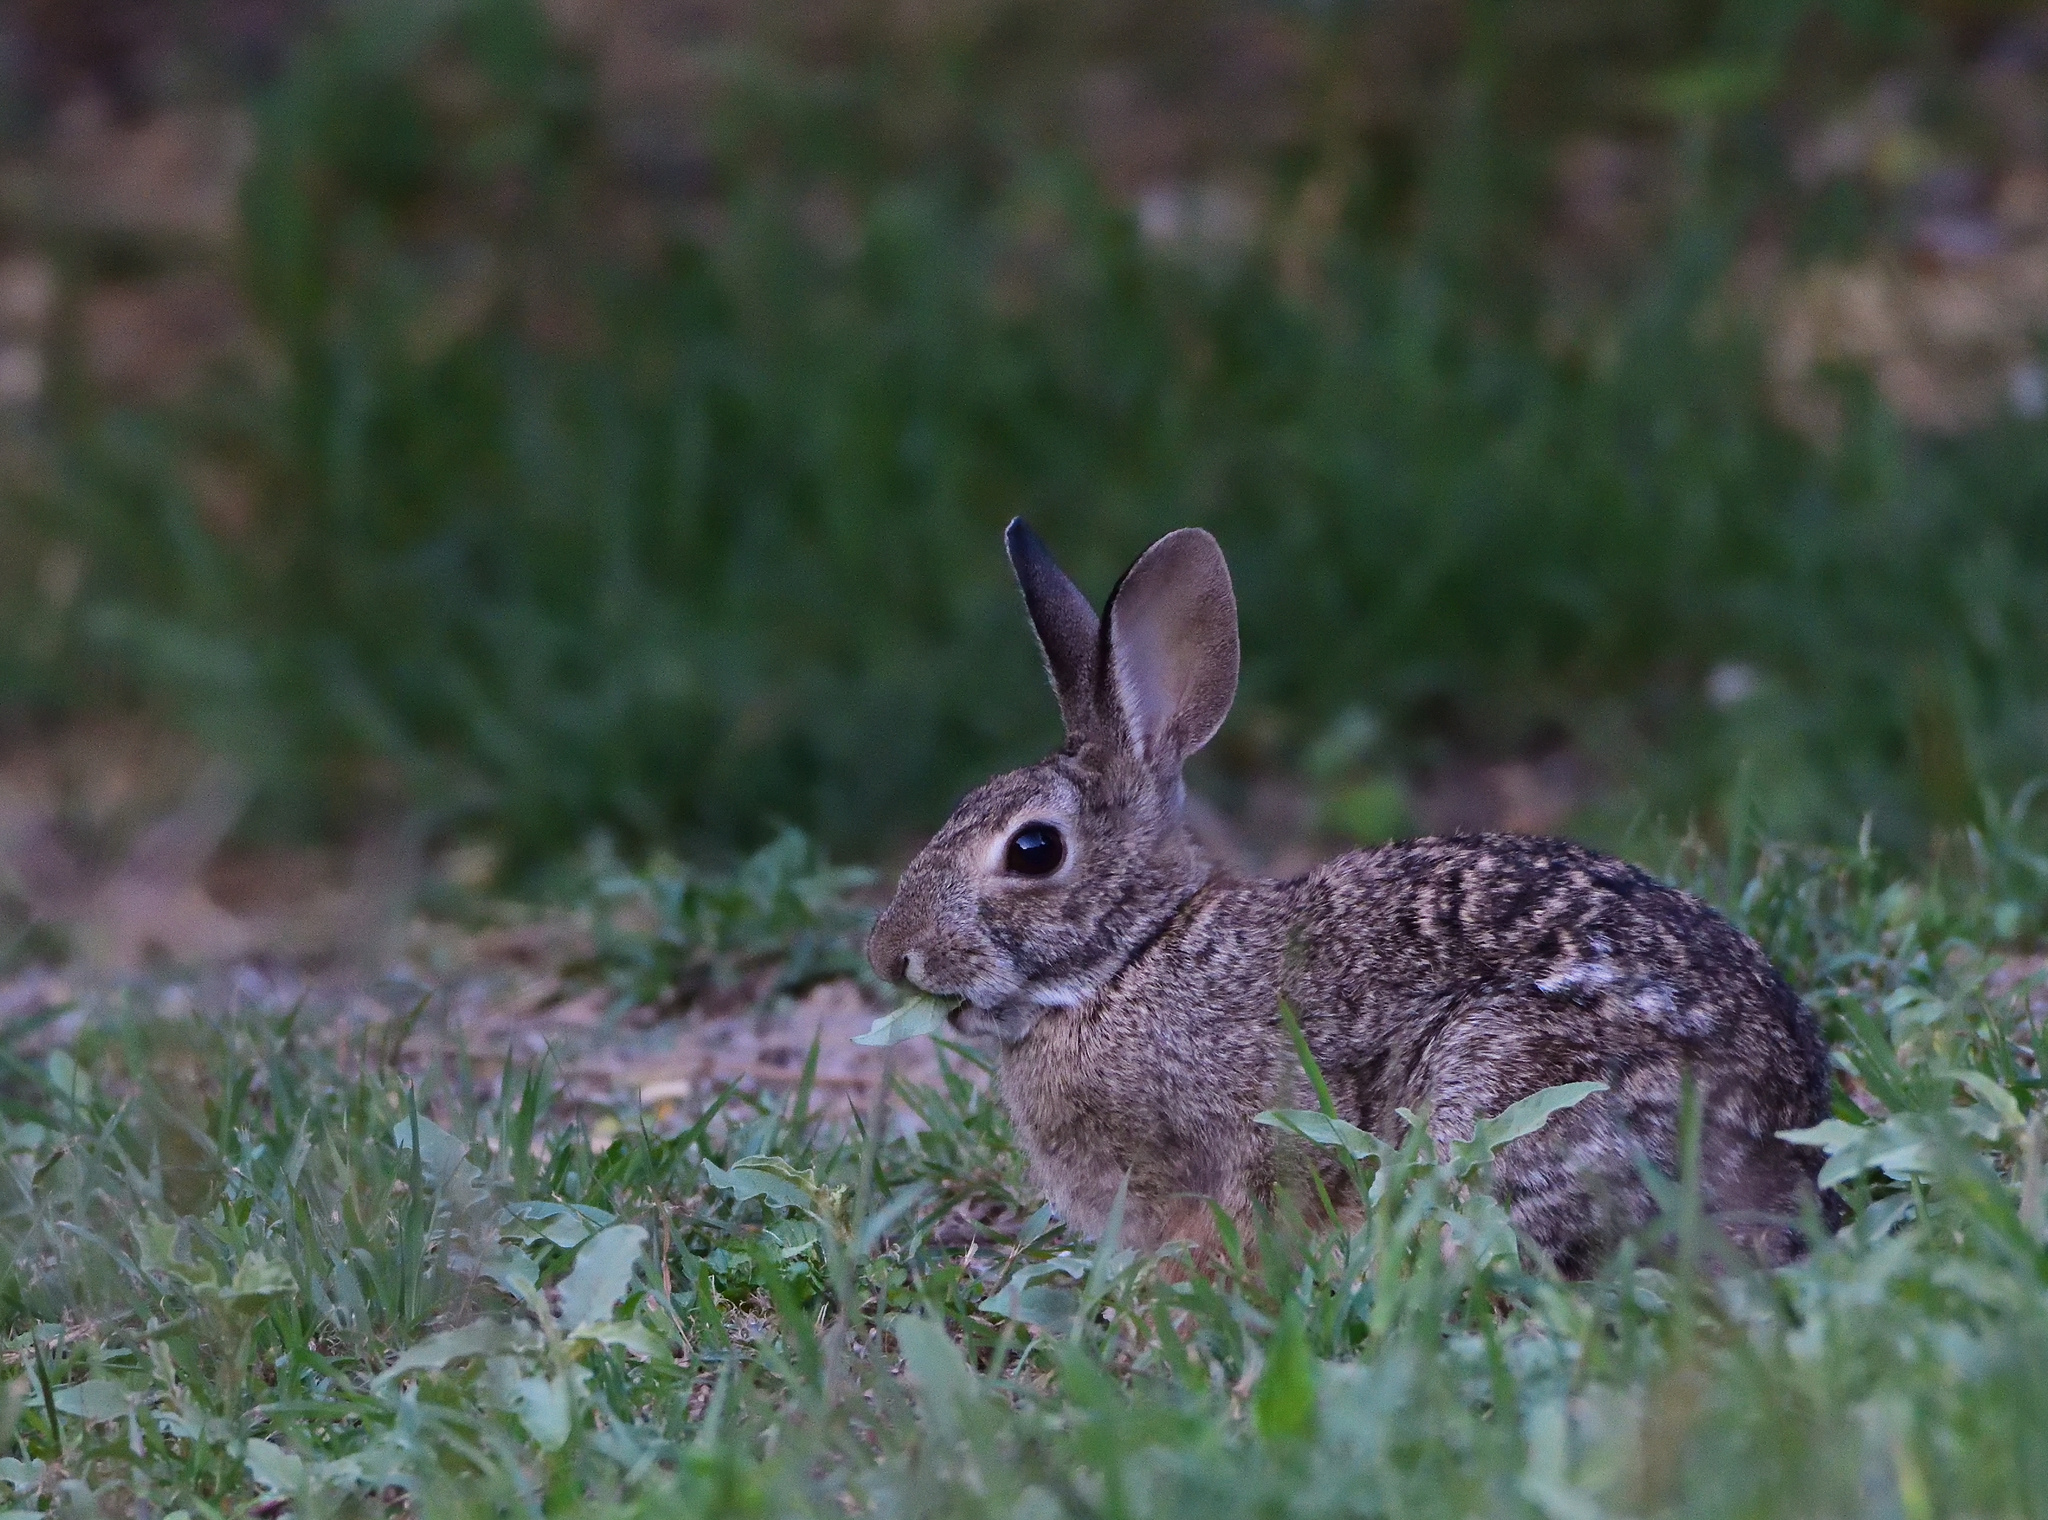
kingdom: Animalia
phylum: Chordata
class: Mammalia
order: Lagomorpha
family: Leporidae
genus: Sylvilagus
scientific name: Sylvilagus floridanus
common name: Eastern cottontail
